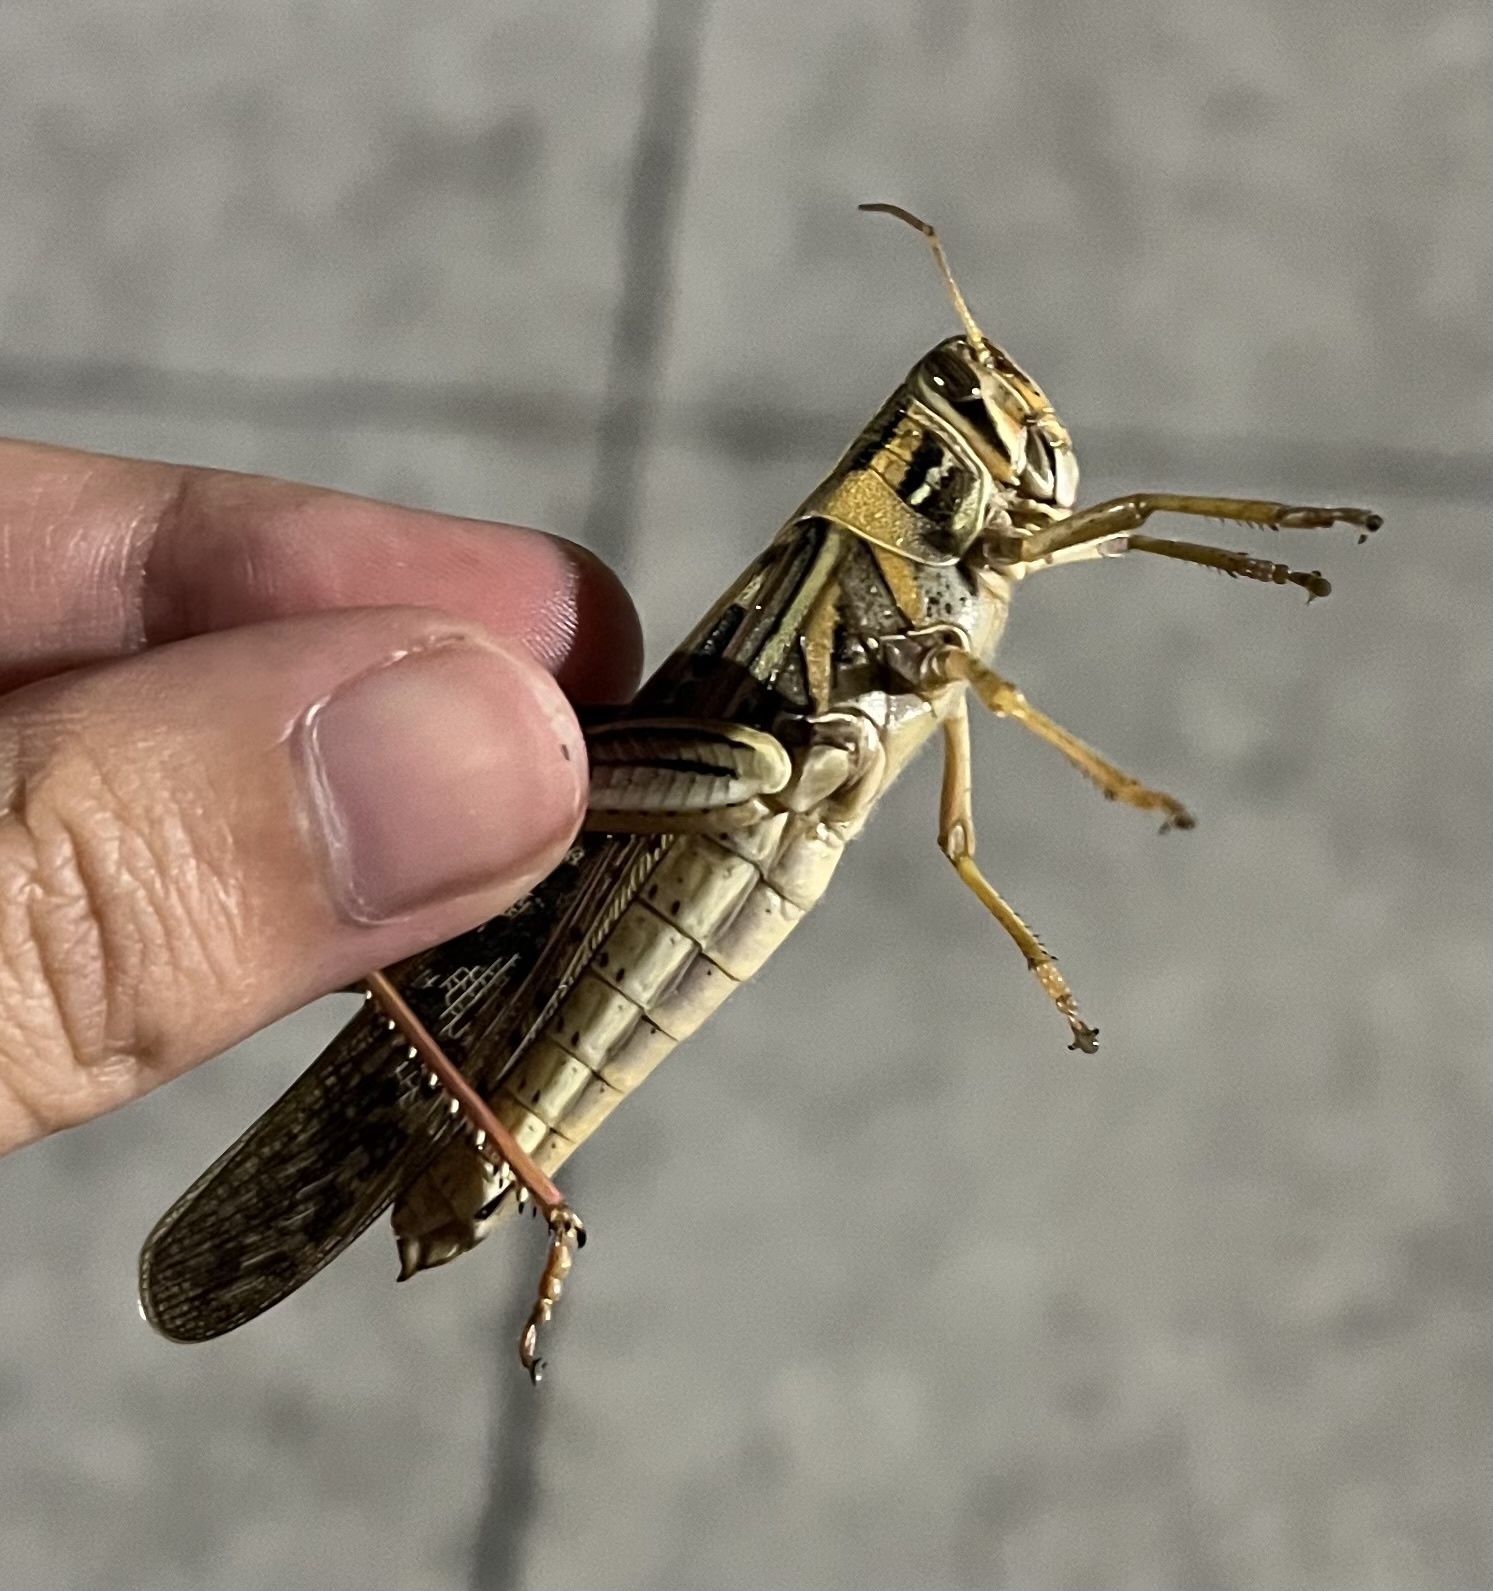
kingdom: Animalia
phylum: Arthropoda
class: Insecta
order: Orthoptera
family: Acrididae
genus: Schistocerca
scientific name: Schistocerca americana
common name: American bird locust
